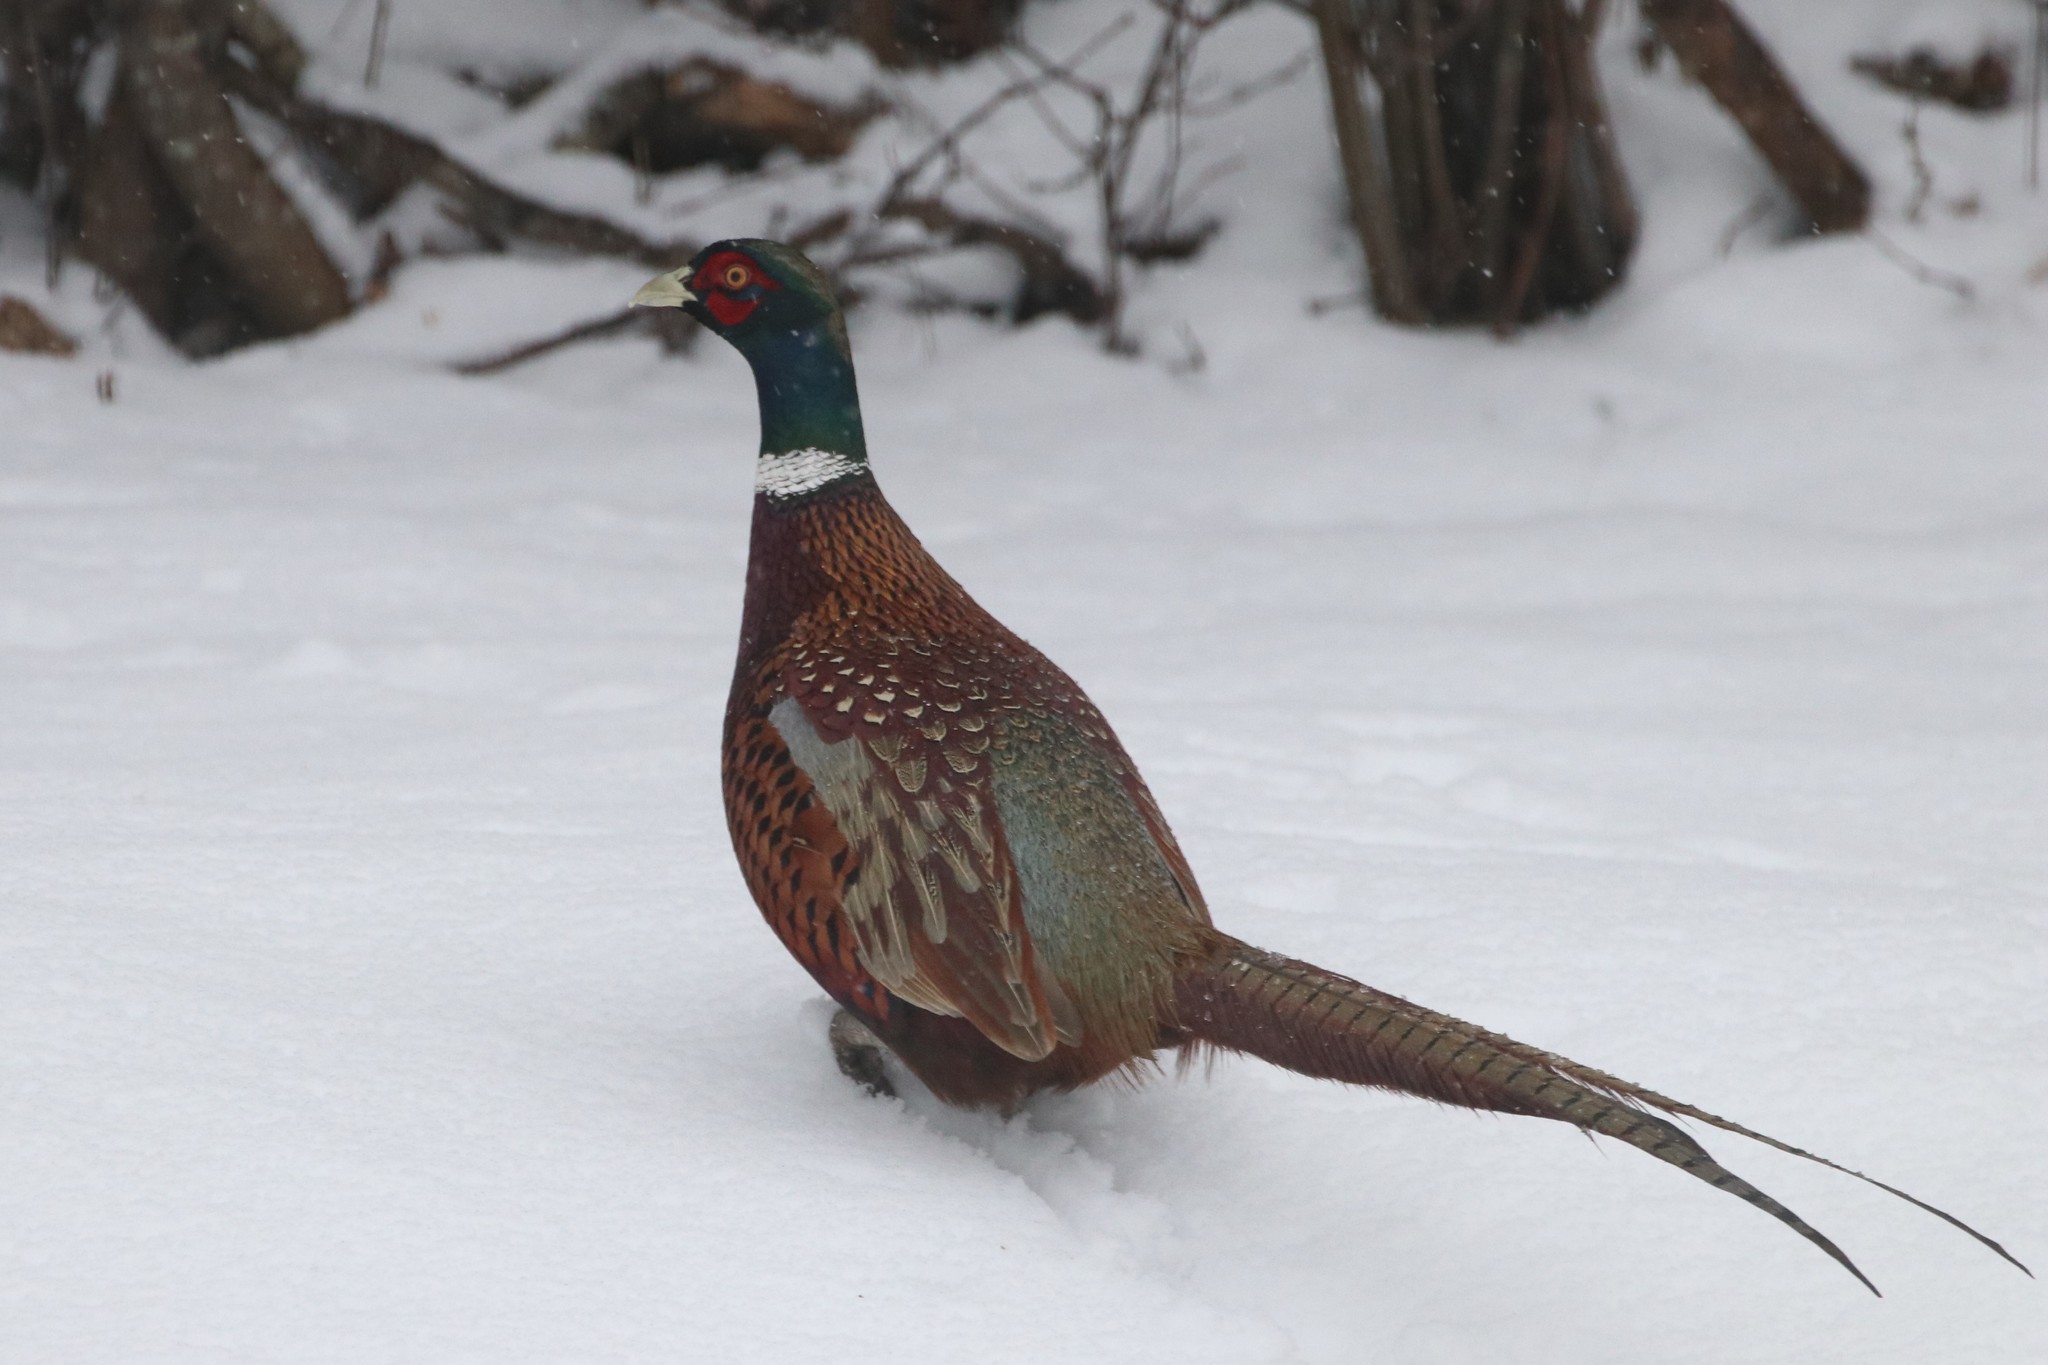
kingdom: Animalia
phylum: Chordata
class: Aves
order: Galliformes
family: Phasianidae
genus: Phasianus
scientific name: Phasianus colchicus
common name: Common pheasant
